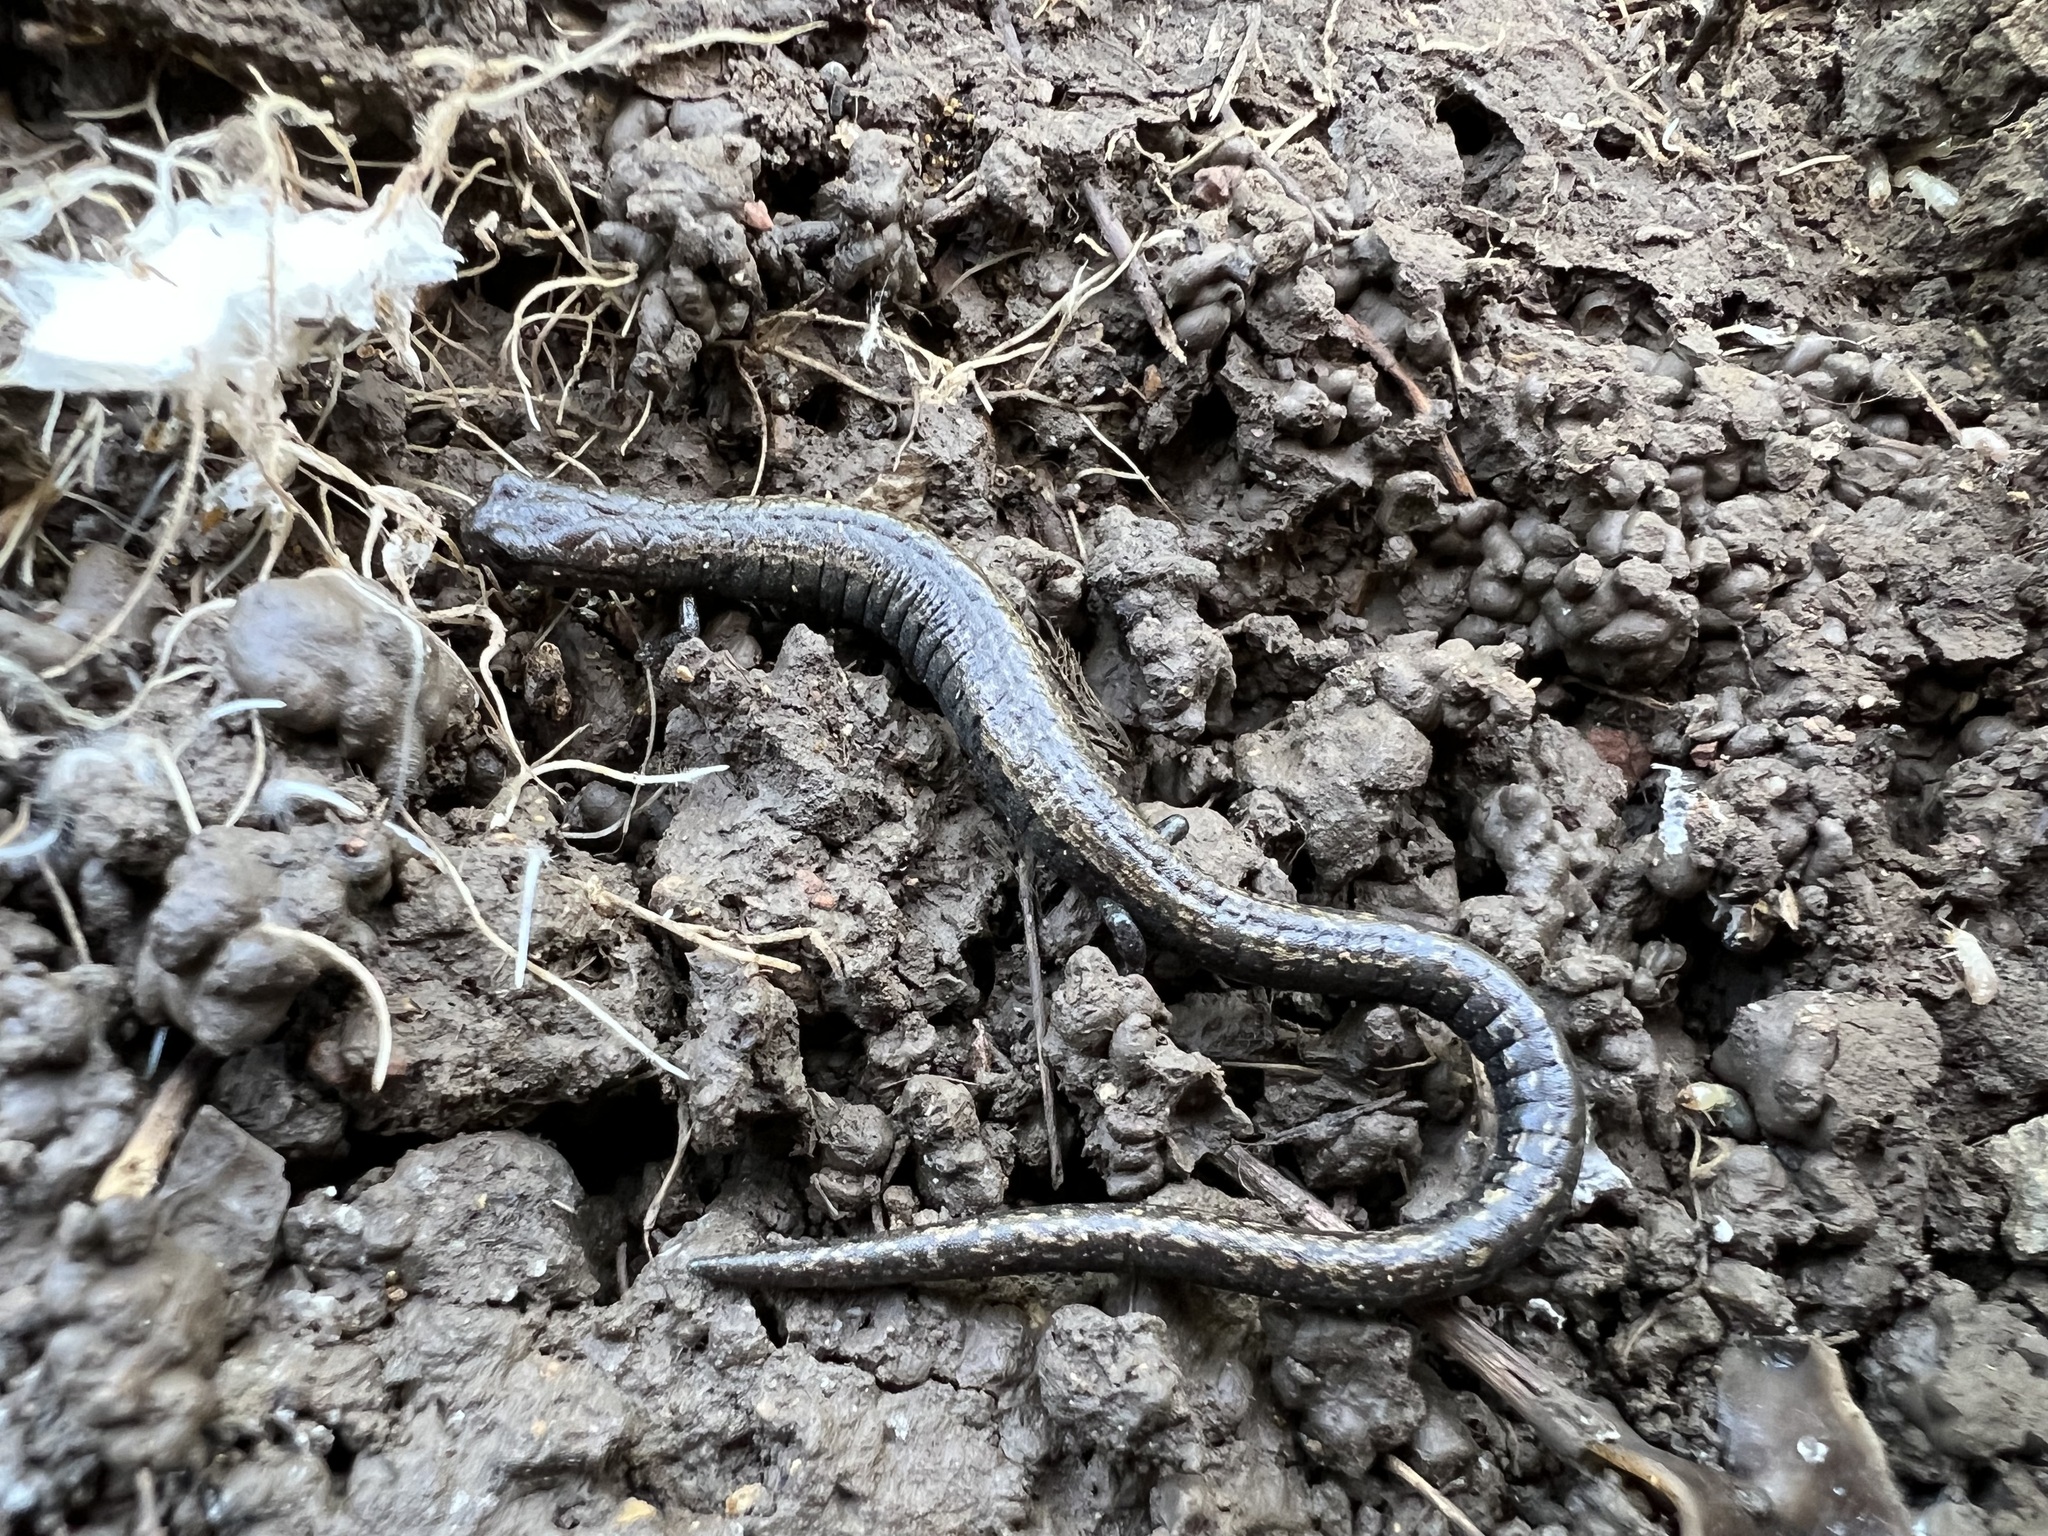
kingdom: Animalia
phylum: Chordata
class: Amphibia
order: Caudata
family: Plethodontidae
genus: Batrachoseps
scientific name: Batrachoseps nigriventris
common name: Black-bellied slender salamander
